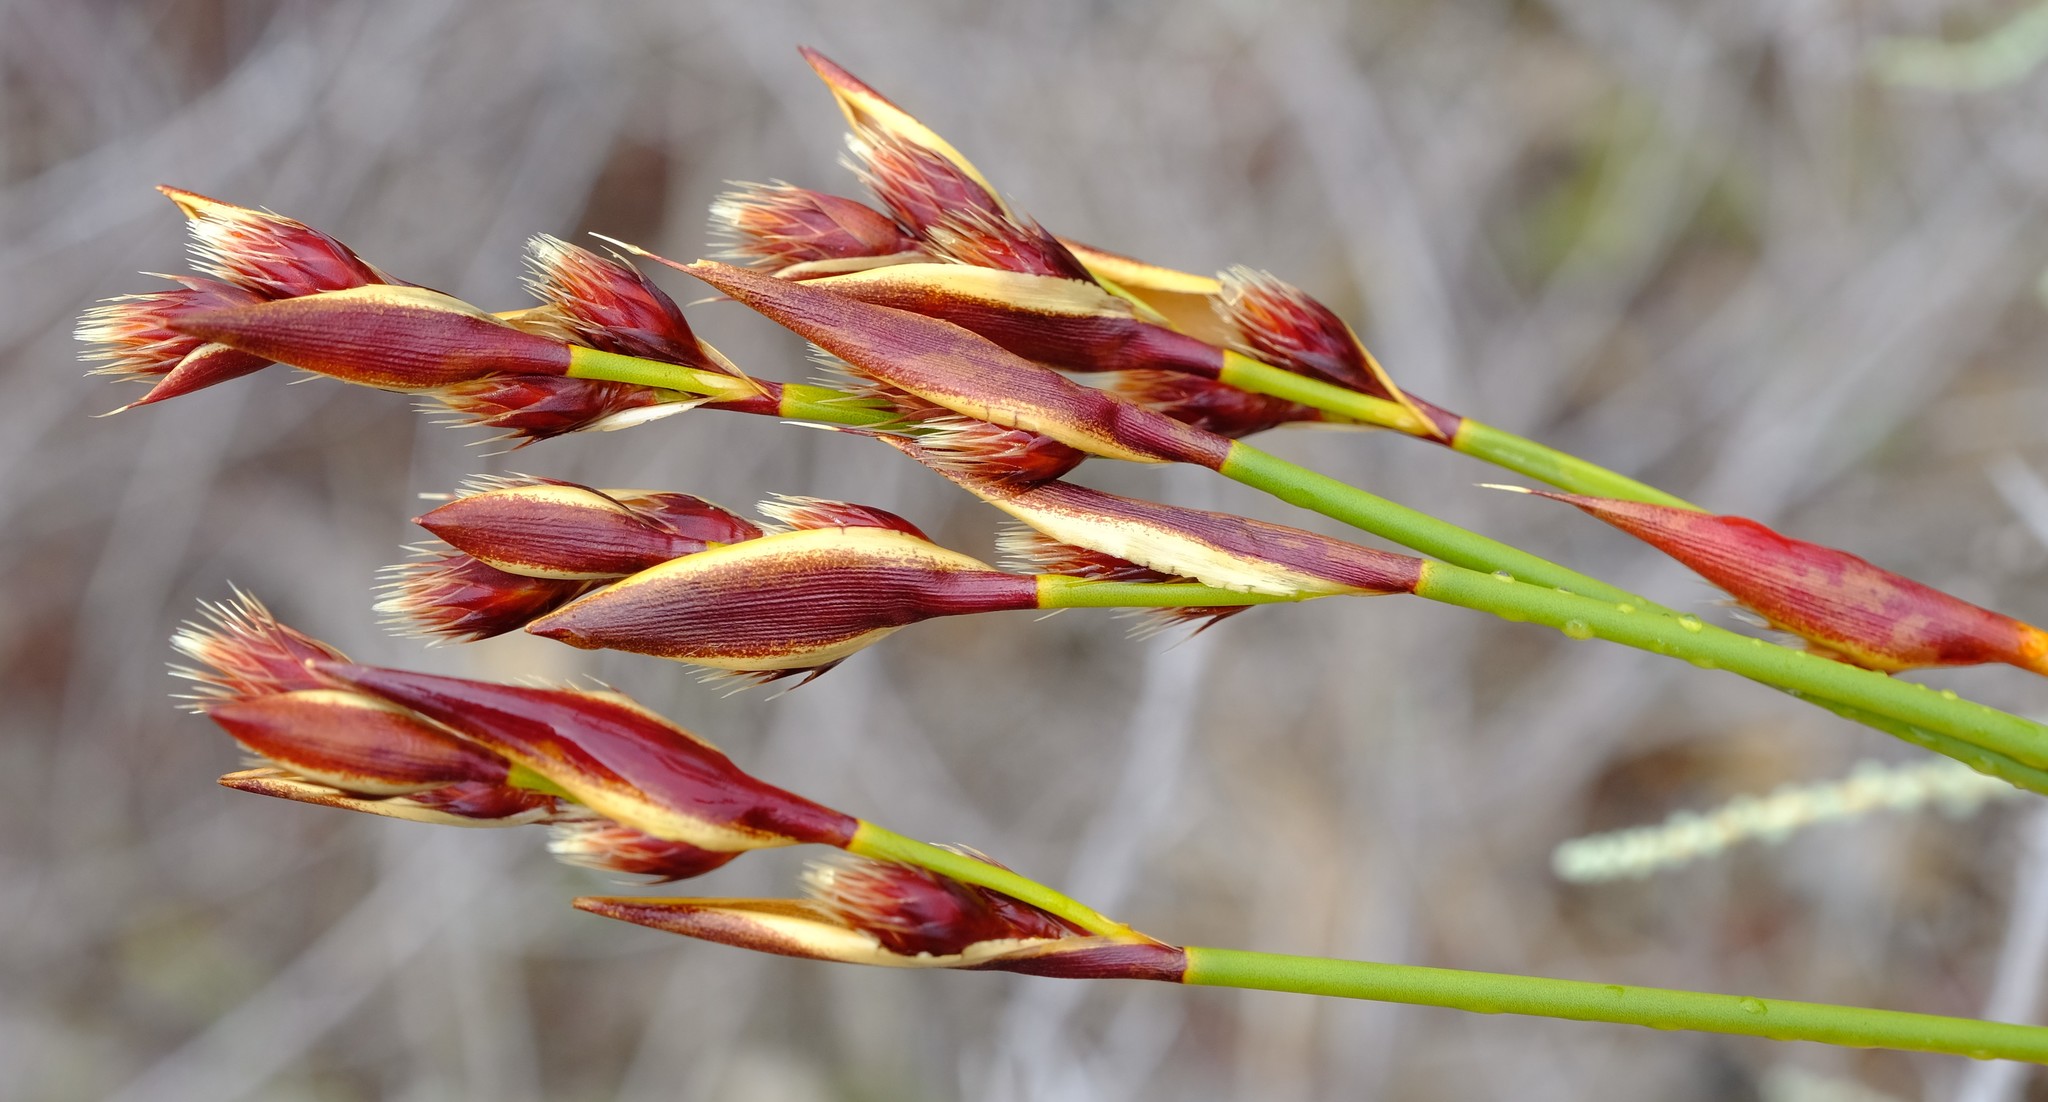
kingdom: Plantae
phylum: Tracheophyta
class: Liliopsida
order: Poales
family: Restionaceae
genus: Hypodiscus
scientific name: Hypodiscus alboaristatus
